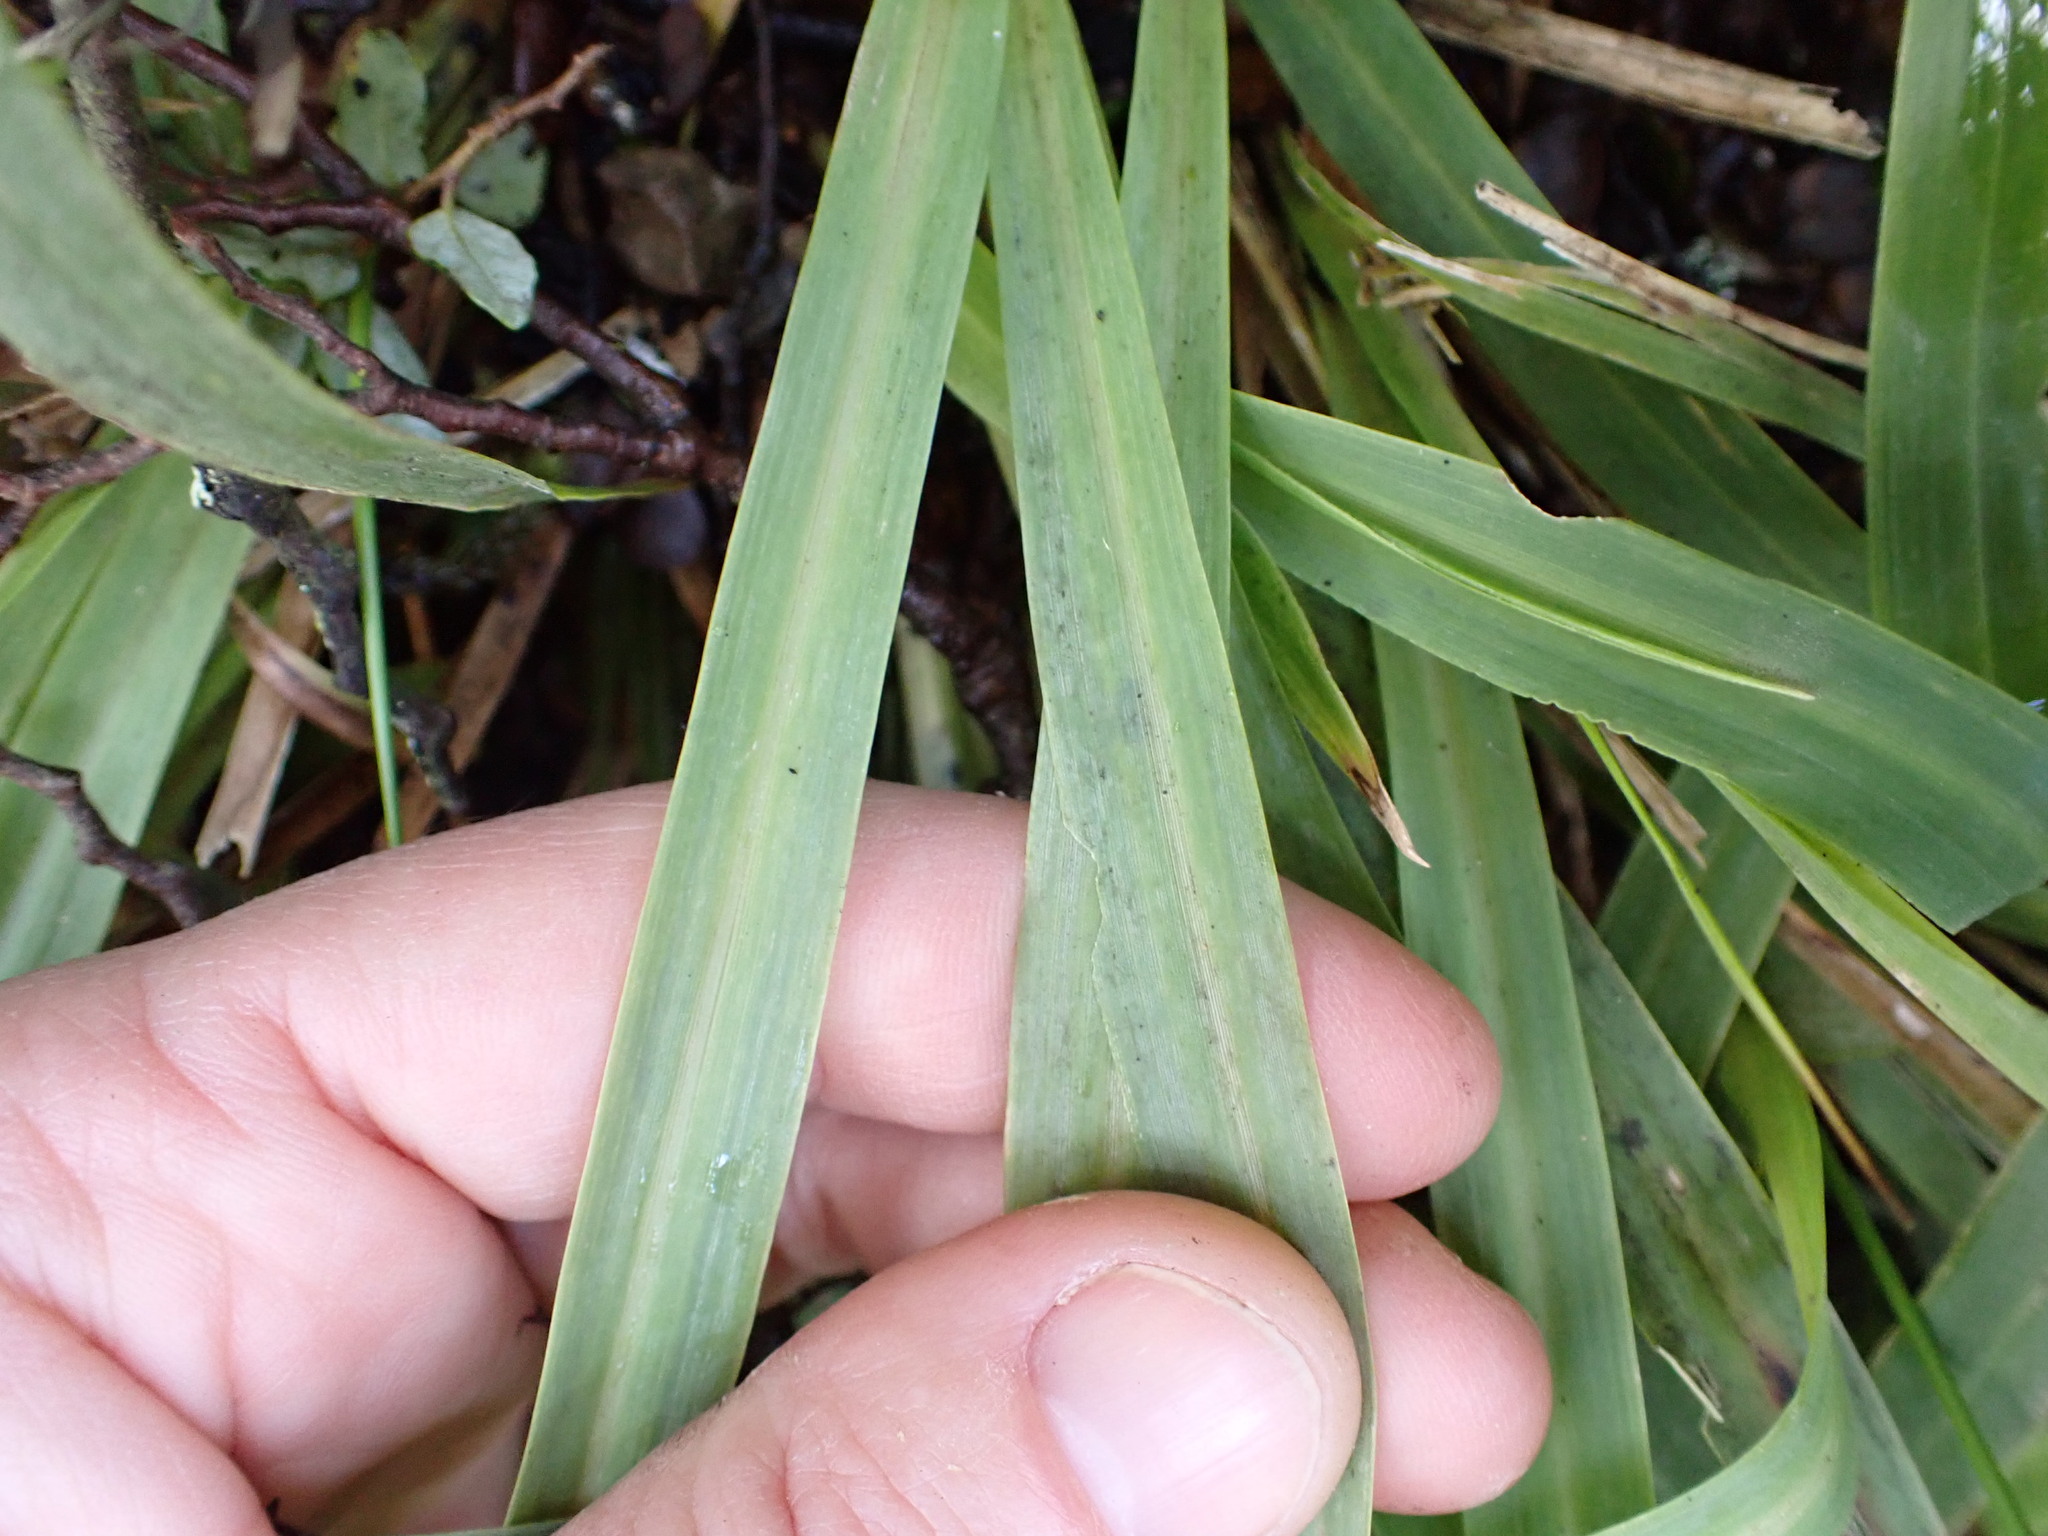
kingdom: Plantae
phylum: Tracheophyta
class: Liliopsida
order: Poales
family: Poaceae
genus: Ehrharta
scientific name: Ehrharta diplax
